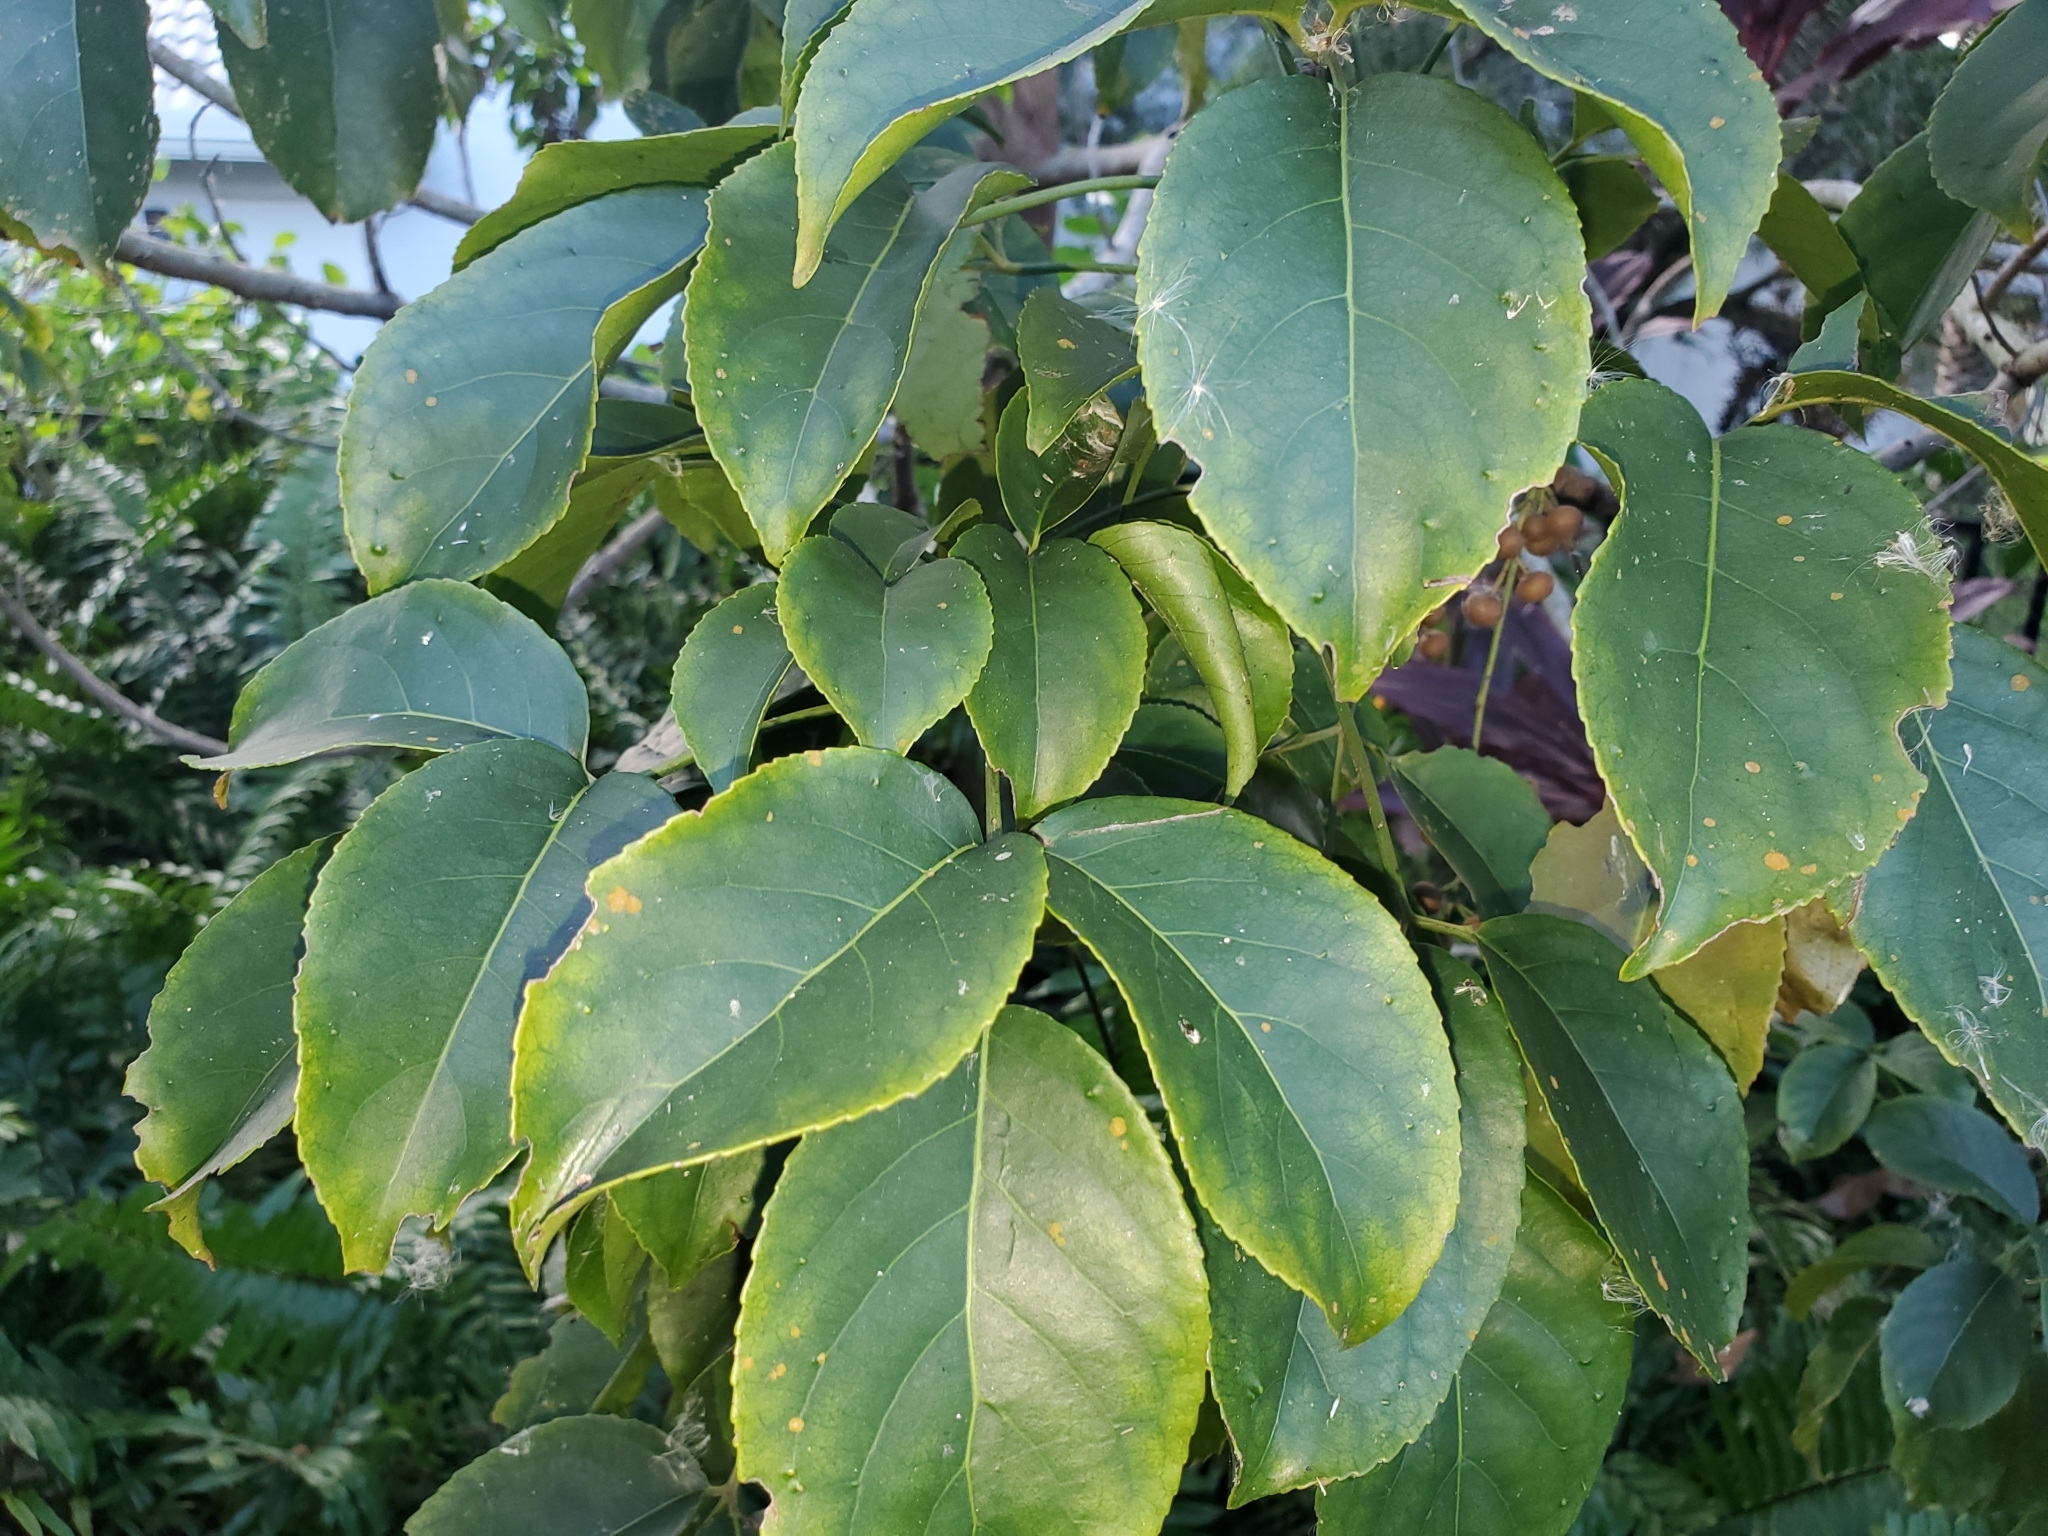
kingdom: Plantae
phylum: Tracheophyta
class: Magnoliopsida
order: Malpighiales
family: Phyllanthaceae
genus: Bischofia
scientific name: Bischofia javanica
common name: Javanese bishopwood
